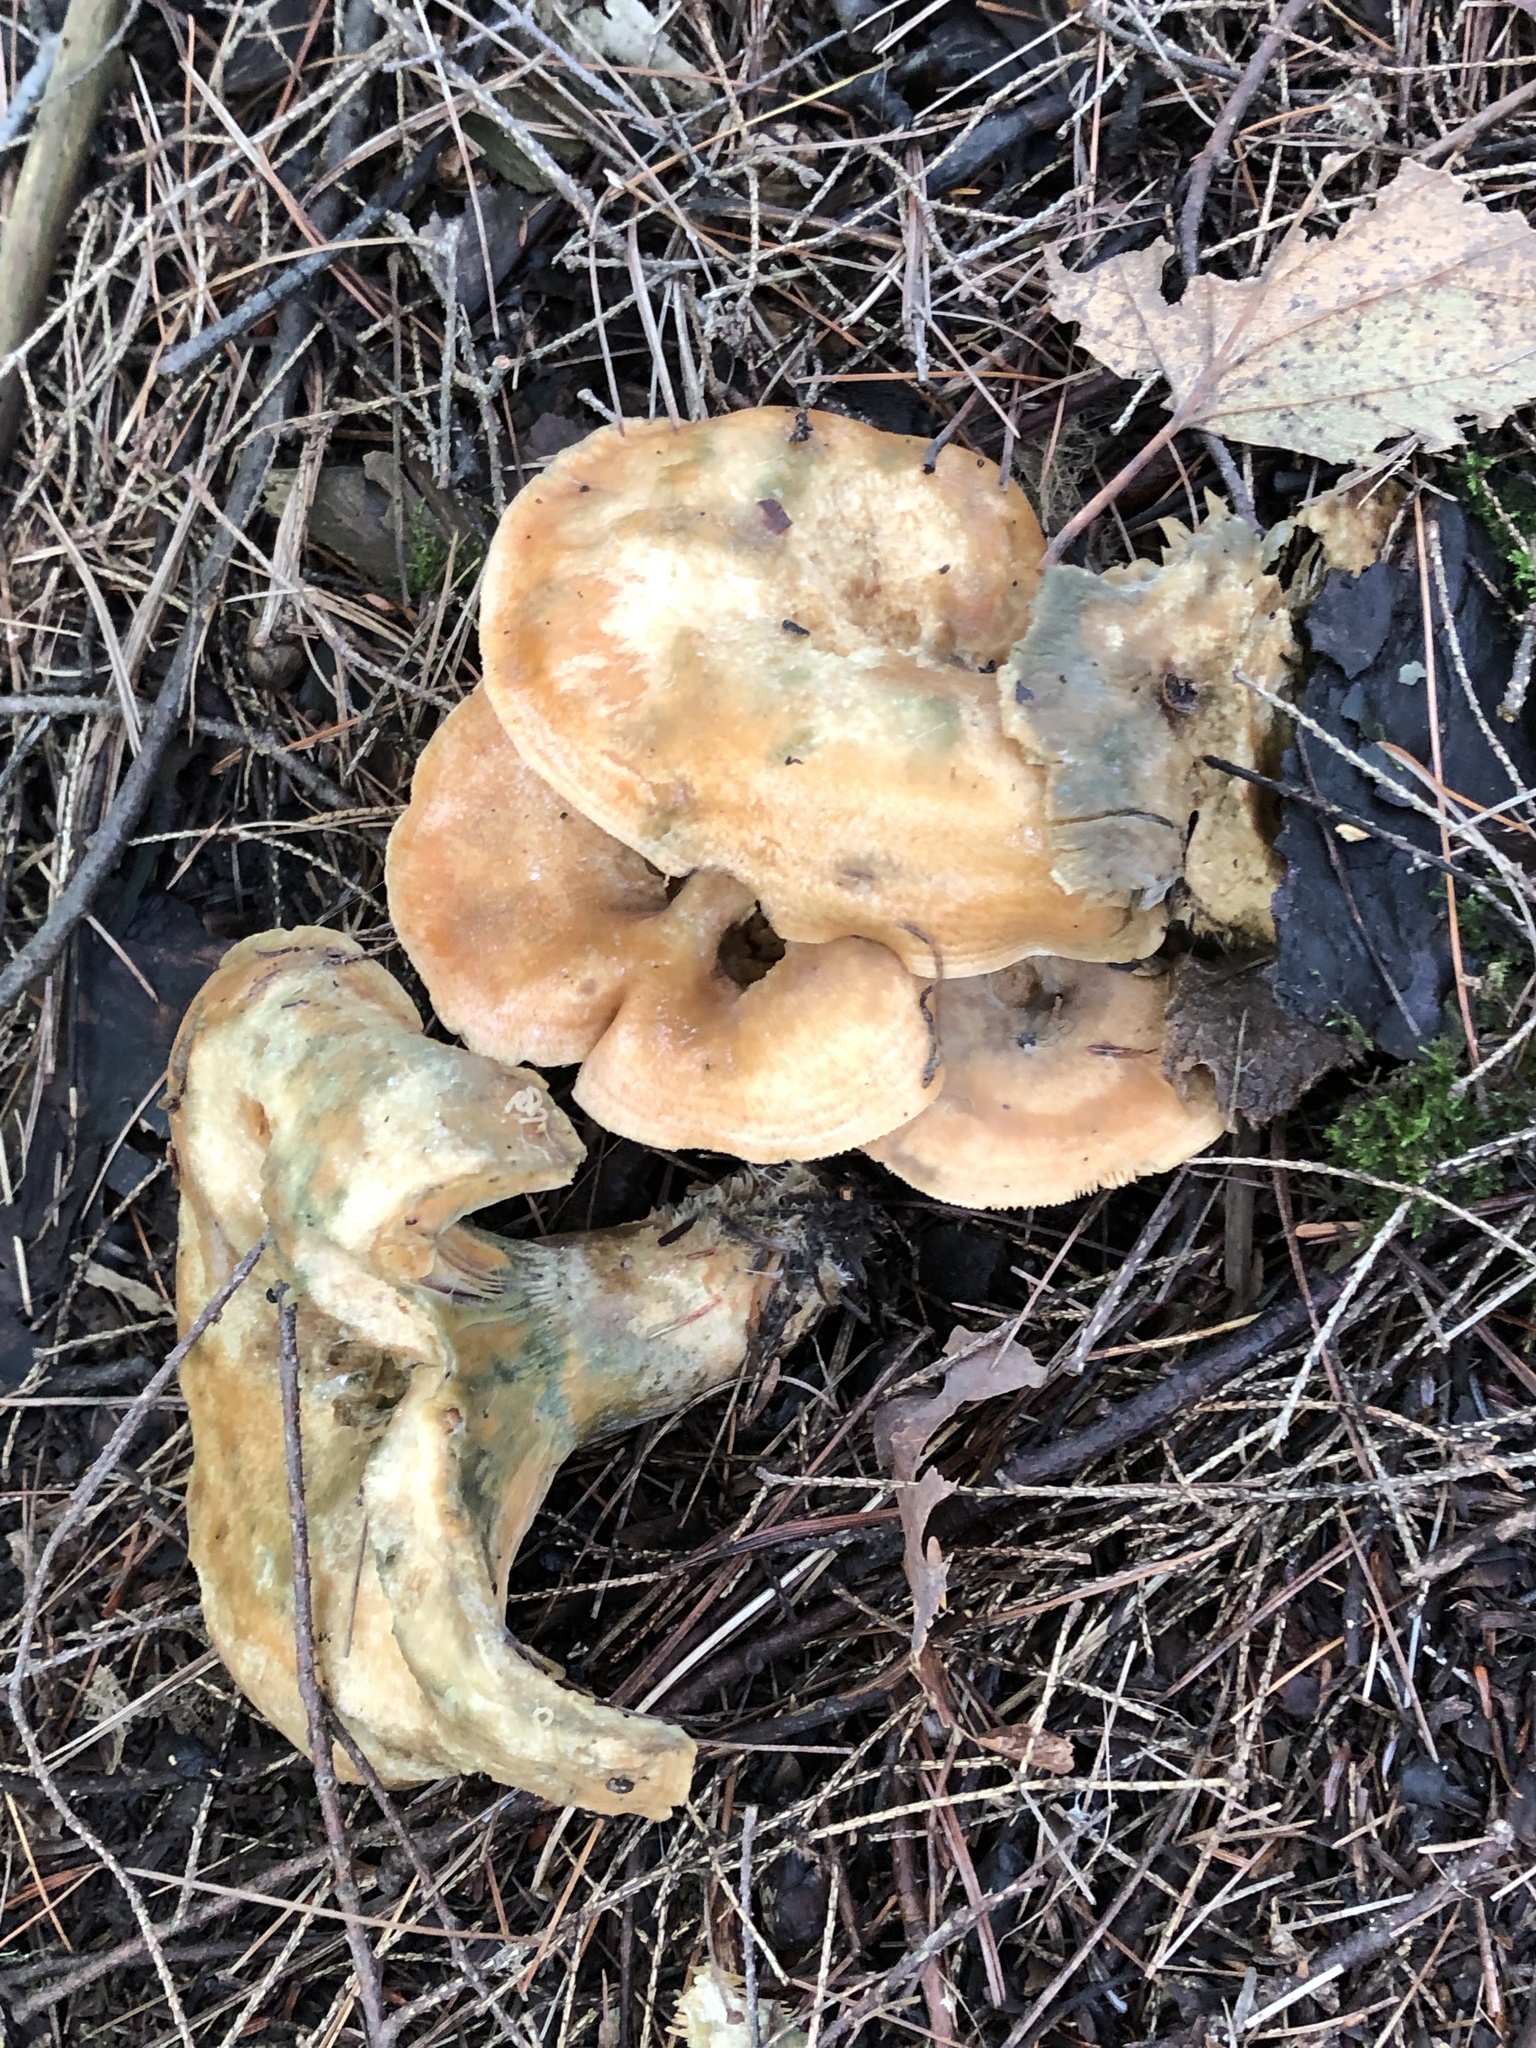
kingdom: Fungi
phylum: Basidiomycota
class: Agaricomycetes
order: Russulales
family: Russulaceae
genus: Lactarius
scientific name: Lactarius deterrimus
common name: False saffron milkcap
